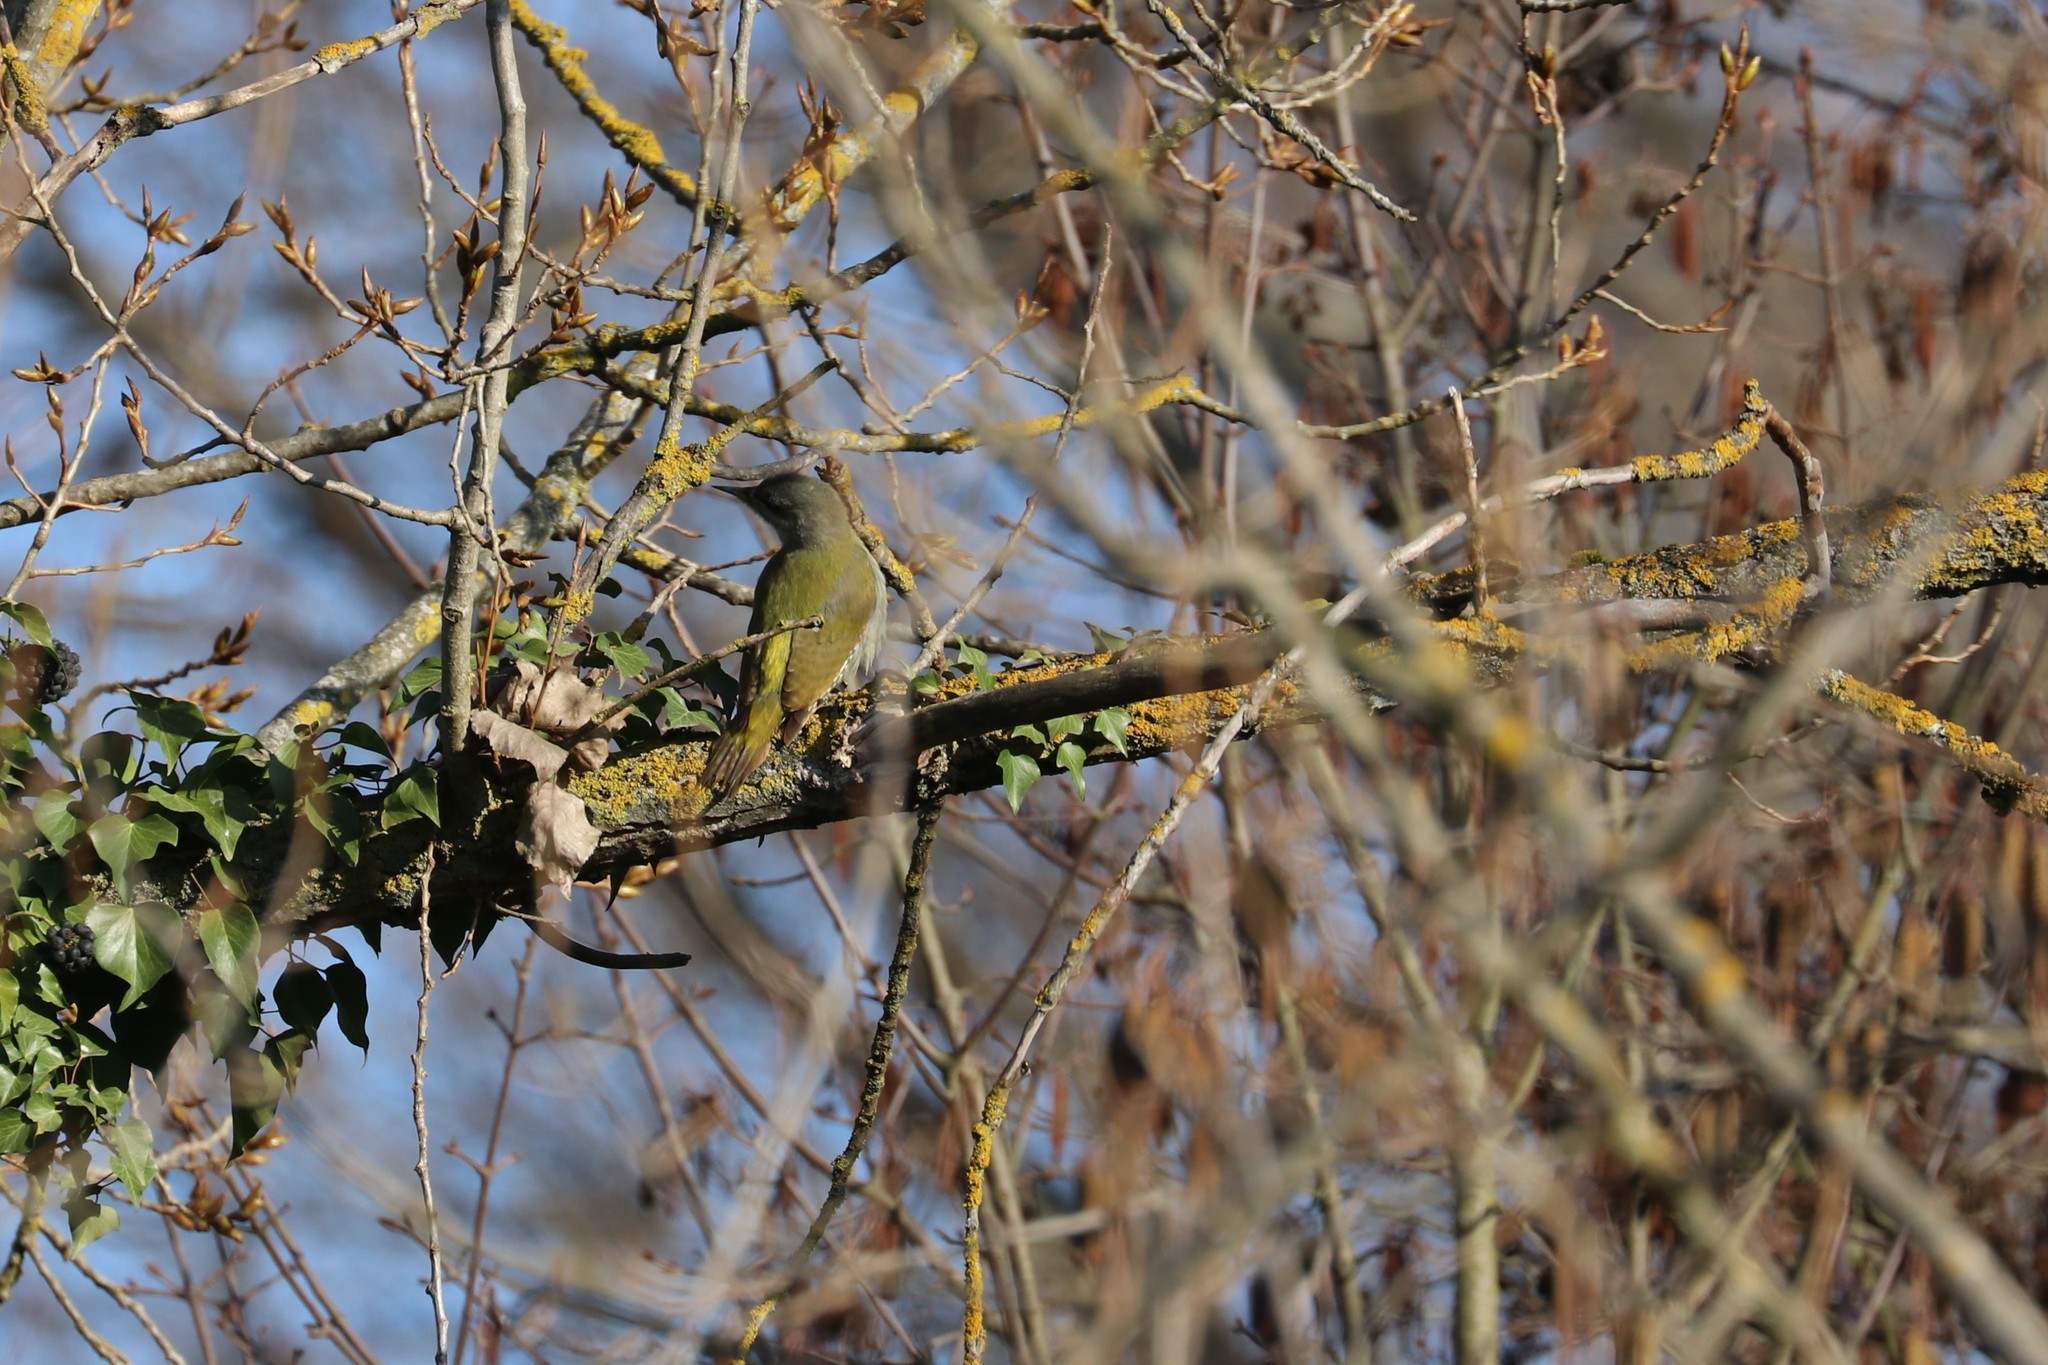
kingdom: Animalia
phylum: Chordata
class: Aves
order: Piciformes
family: Picidae
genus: Picus
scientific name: Picus canus
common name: Grey-headed woodpecker
